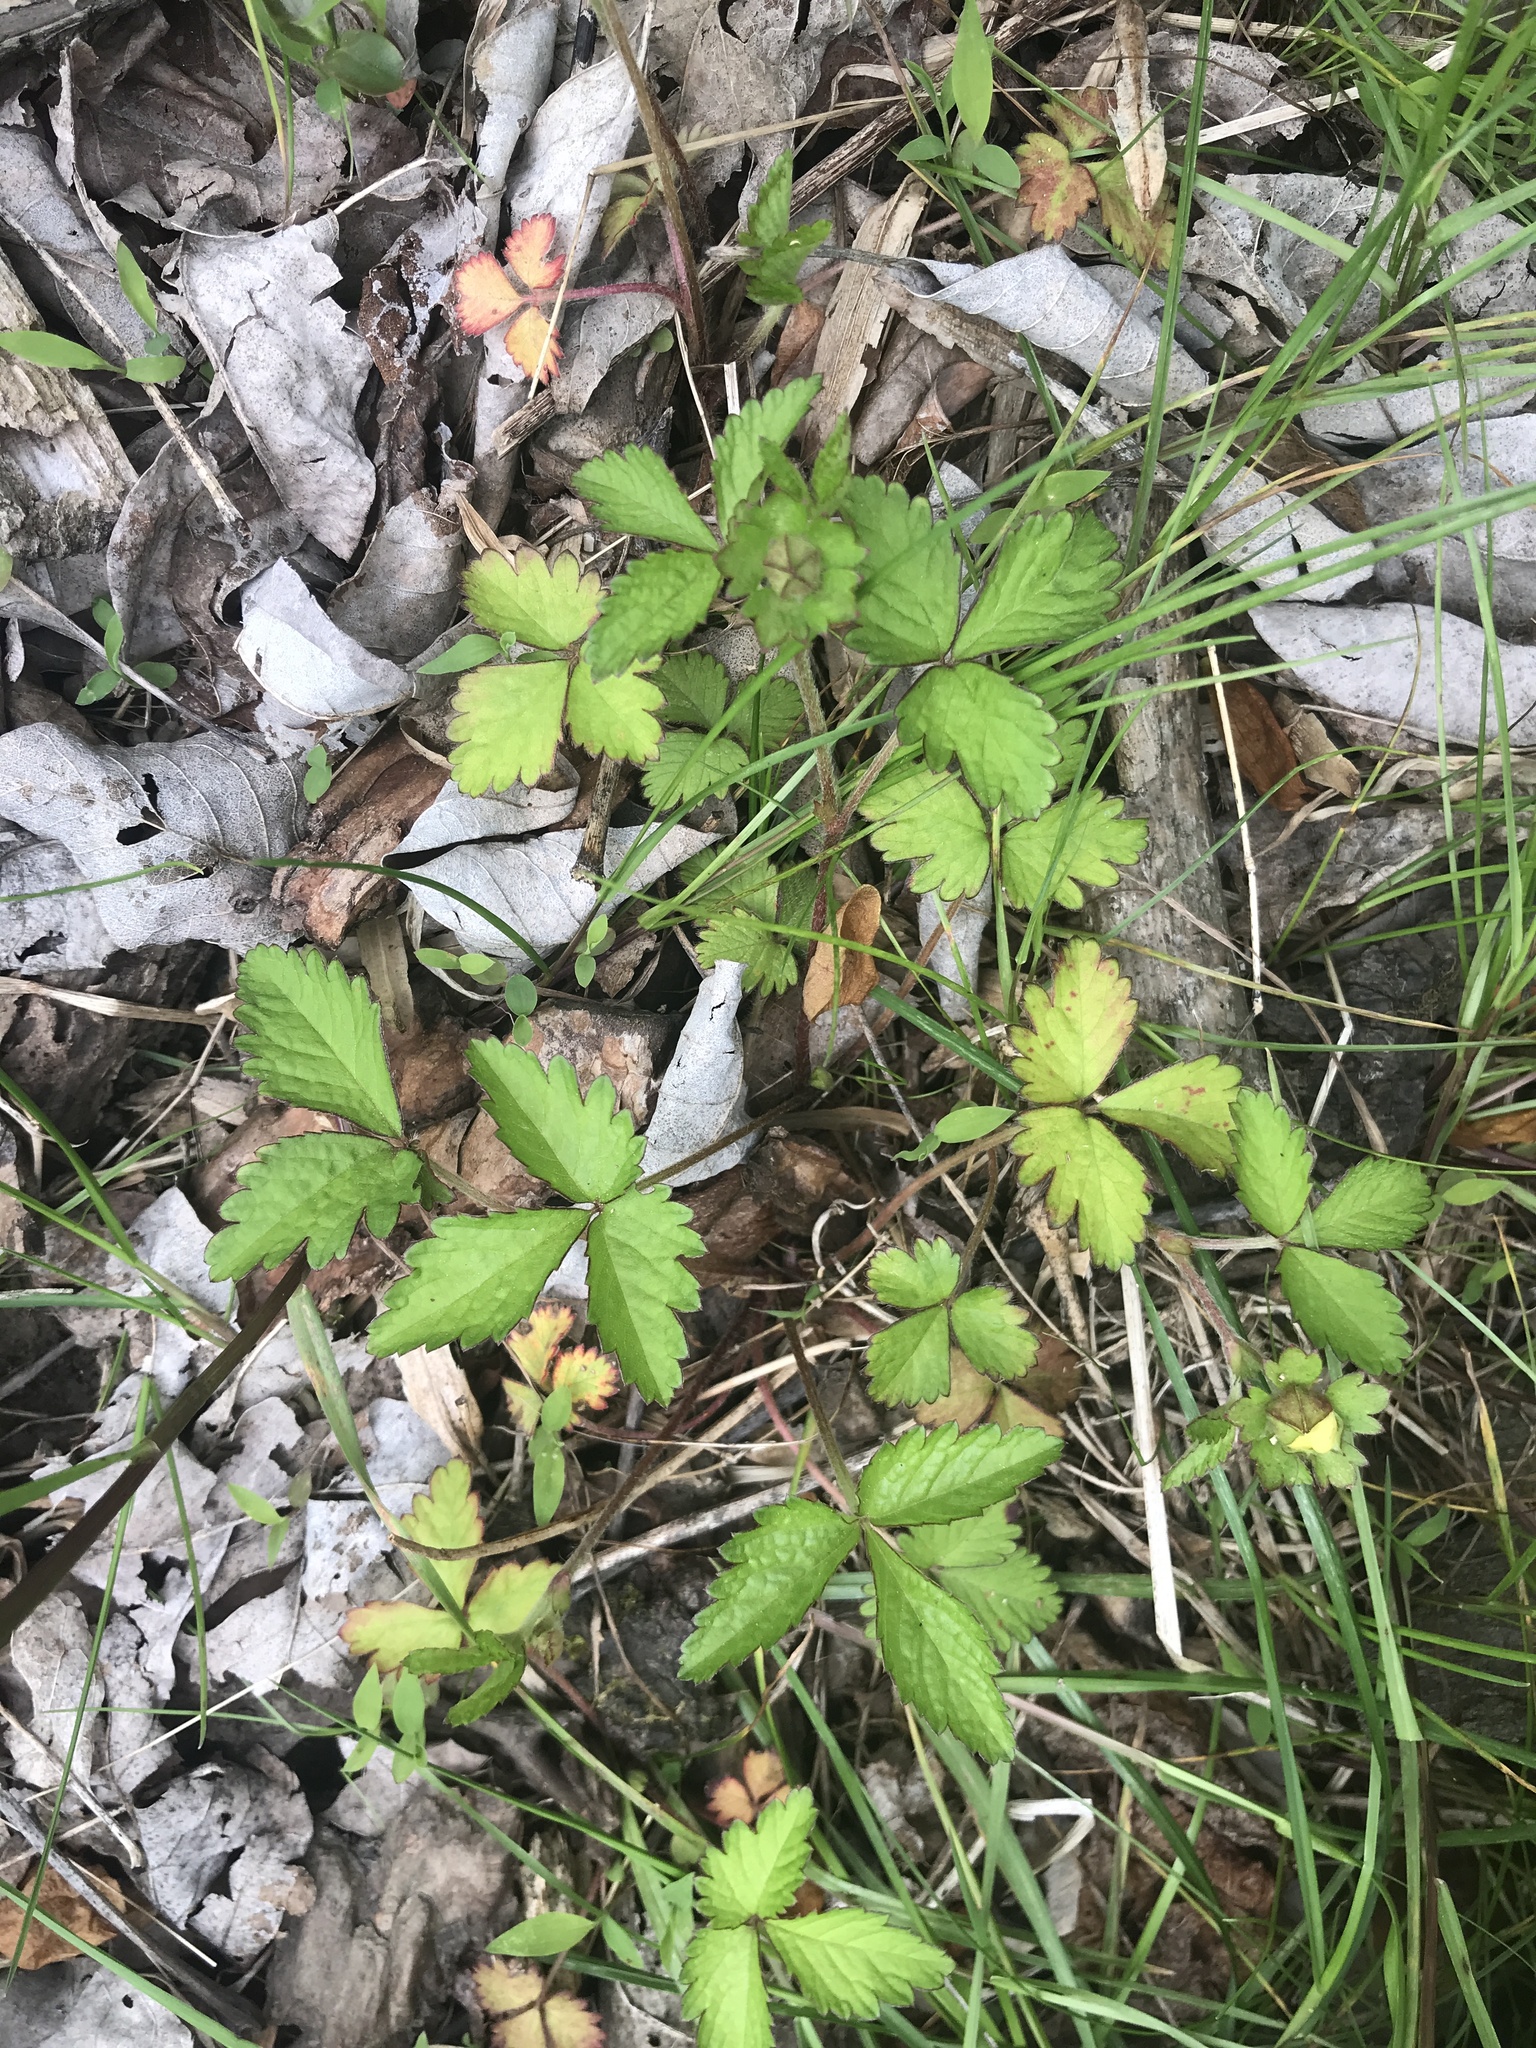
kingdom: Plantae
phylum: Tracheophyta
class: Magnoliopsida
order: Rosales
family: Rosaceae
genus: Potentilla
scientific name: Potentilla indica
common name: Yellow-flowered strawberry
